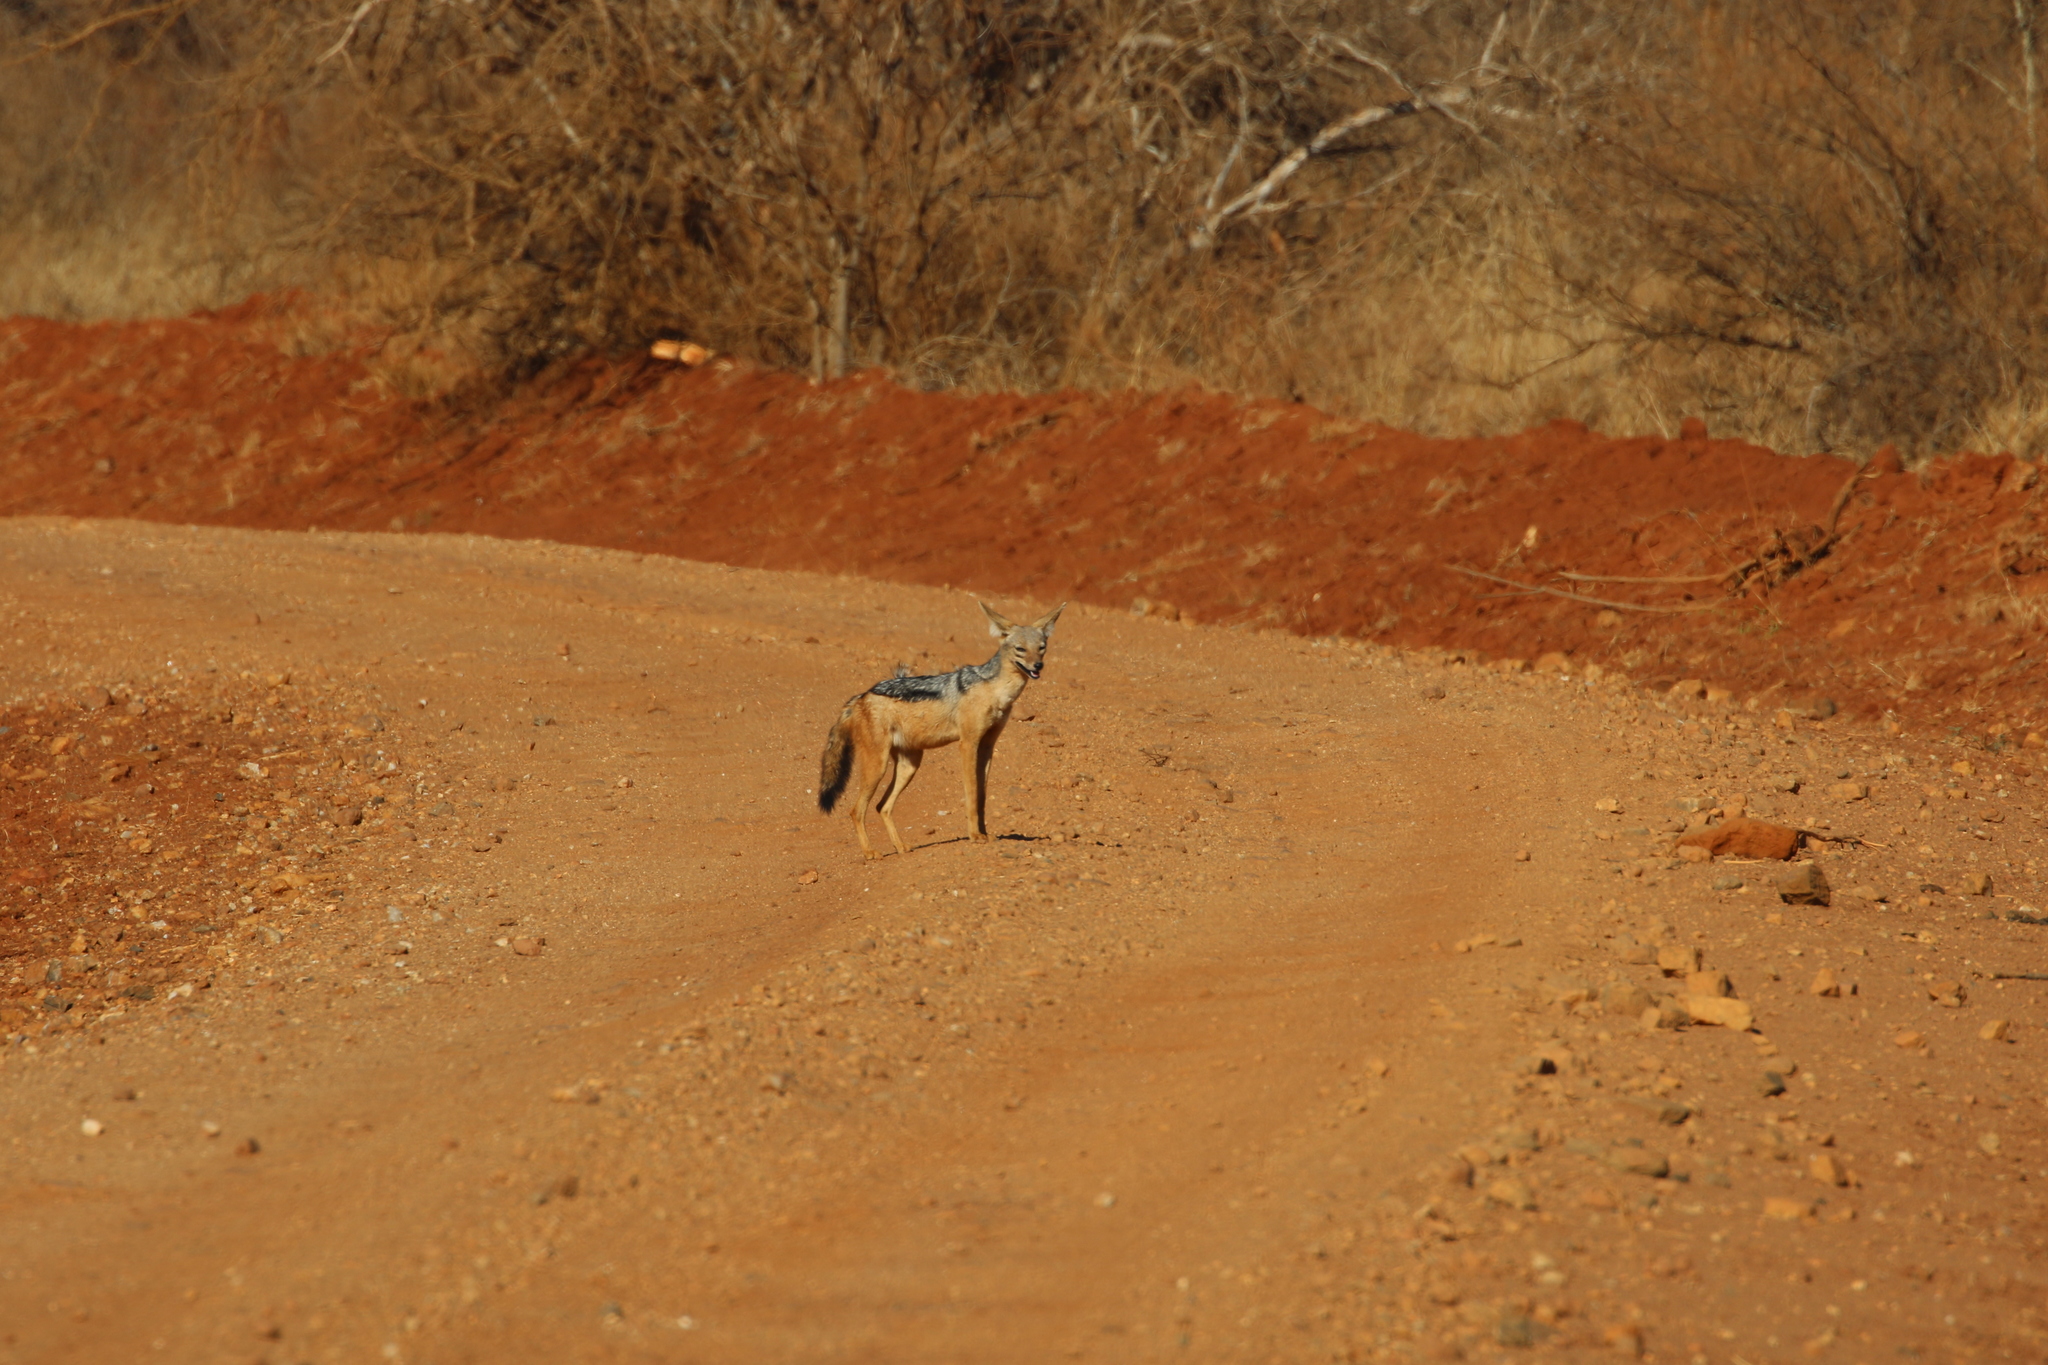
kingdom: Animalia
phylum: Chordata
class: Mammalia
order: Carnivora
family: Canidae
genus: Lupulella
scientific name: Lupulella
